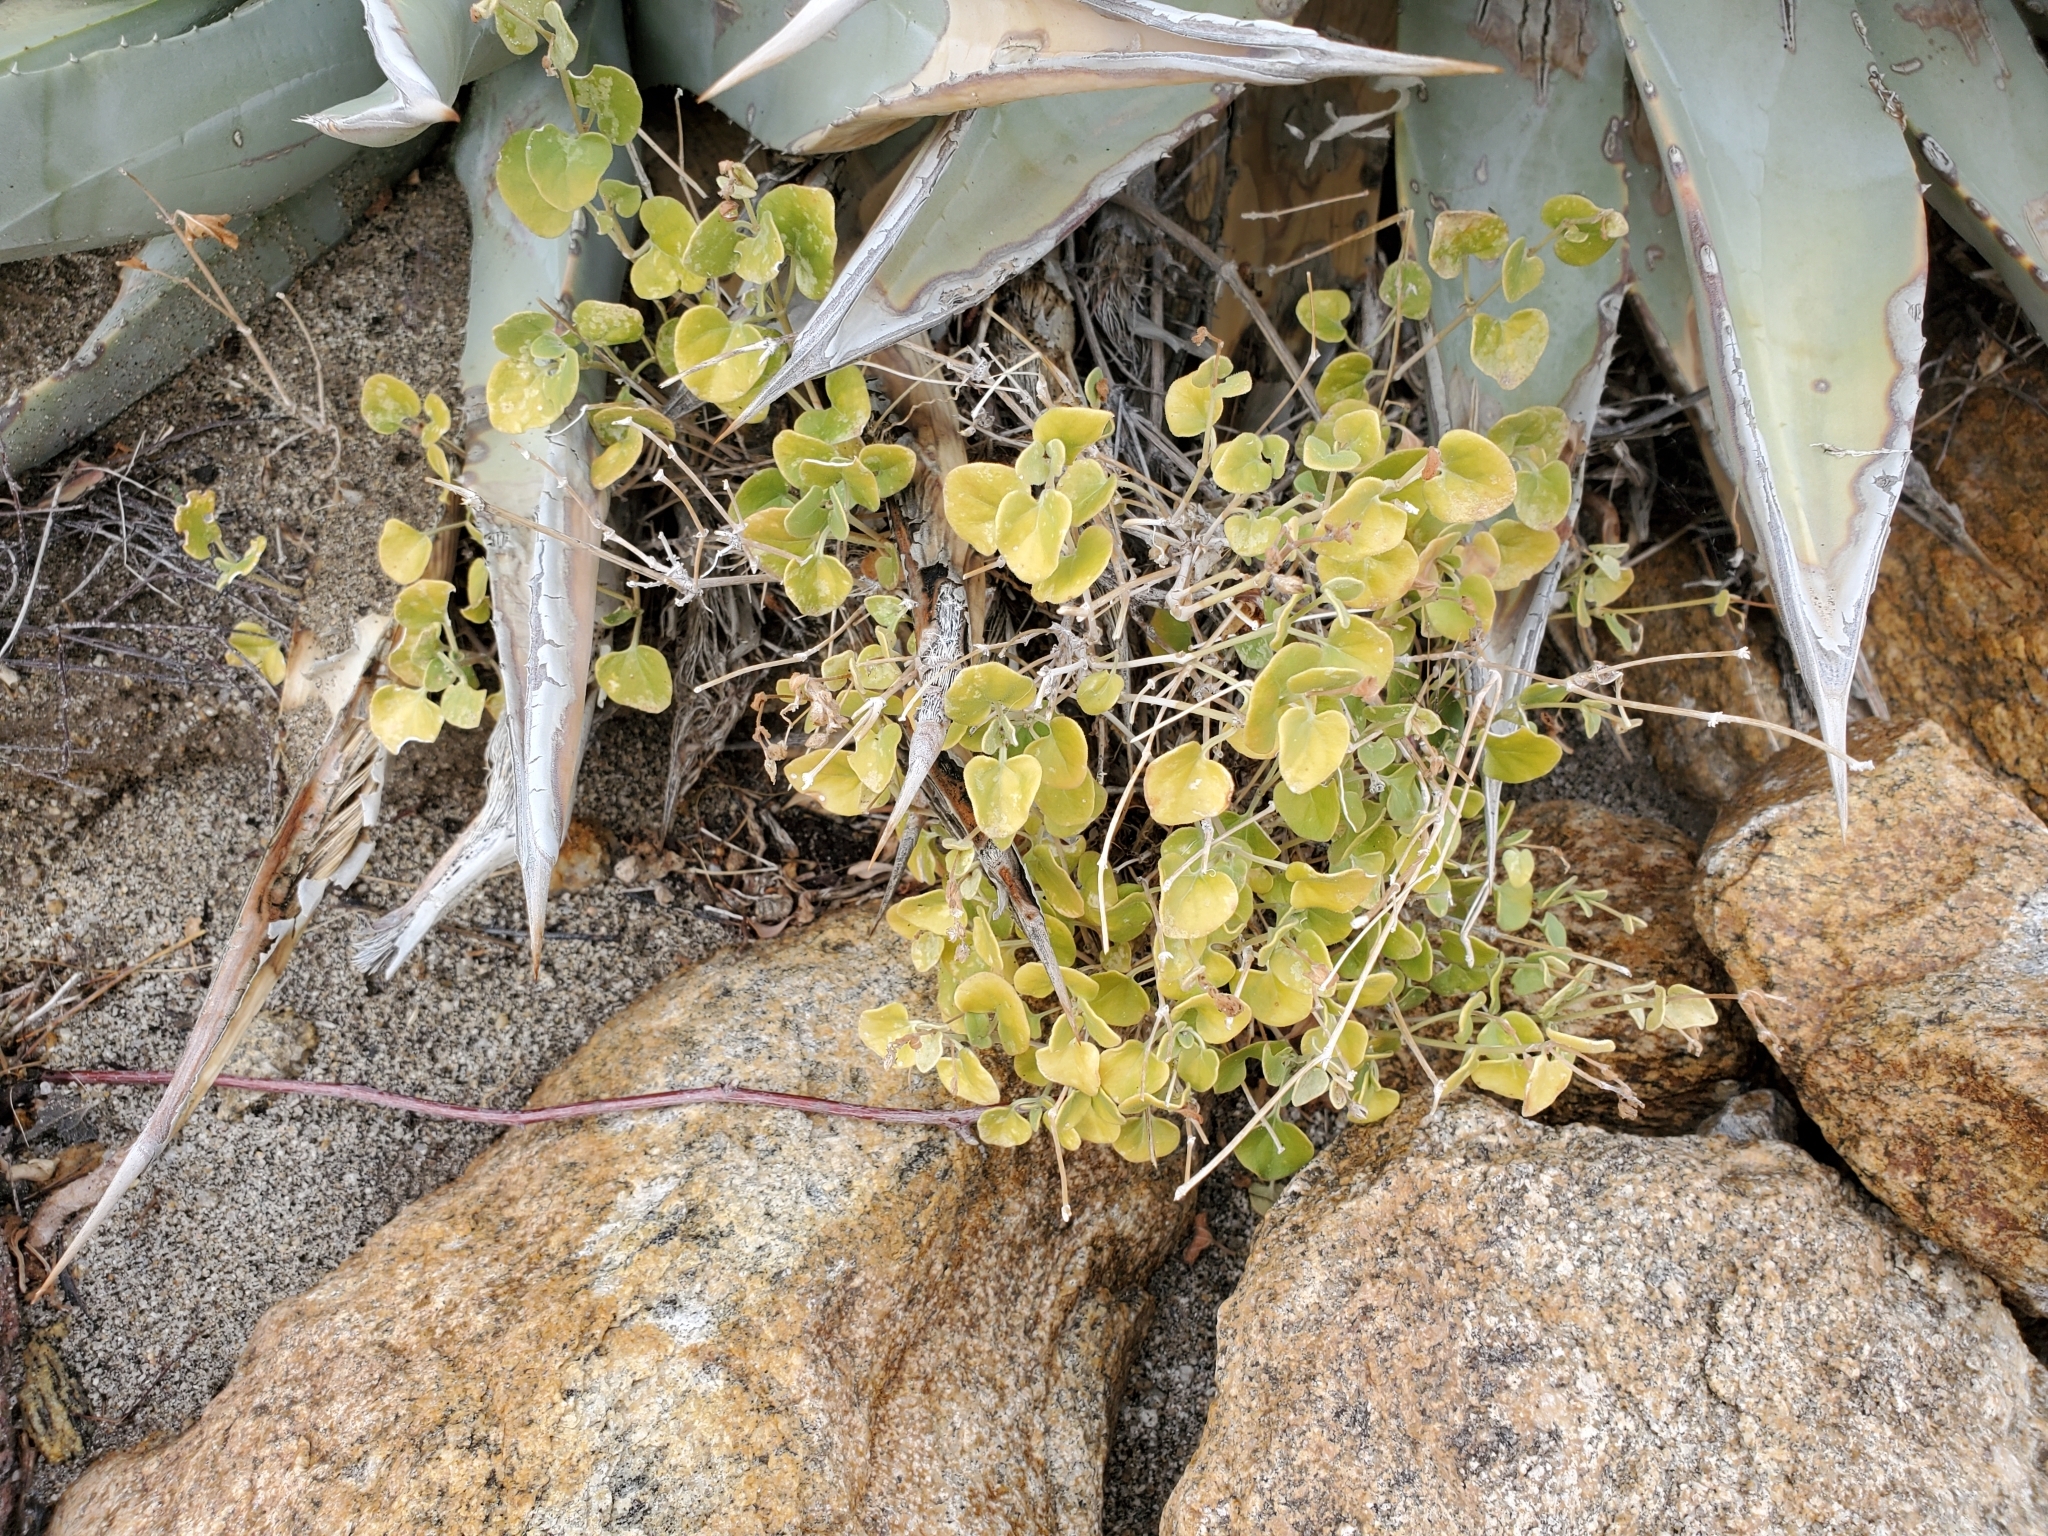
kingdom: Plantae
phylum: Tracheophyta
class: Magnoliopsida
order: Caryophyllales
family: Nyctaginaceae
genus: Mirabilis
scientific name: Mirabilis laevis
